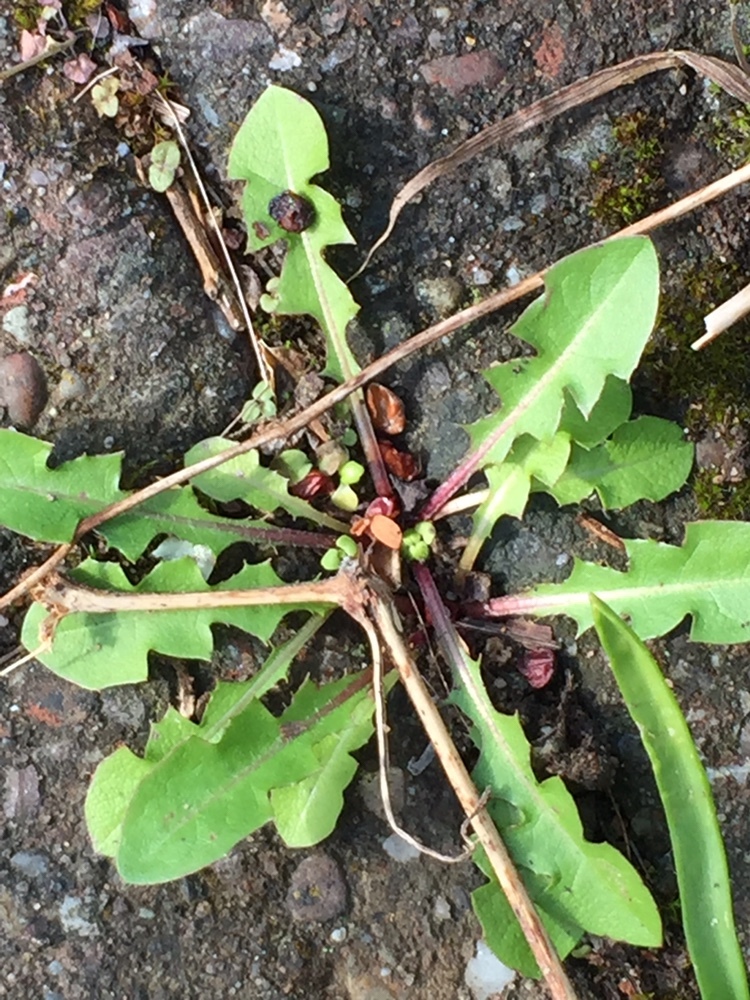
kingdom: Plantae
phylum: Tracheophyta
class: Magnoliopsida
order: Asterales
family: Asteraceae
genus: Taraxacum
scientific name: Taraxacum officinale
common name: Common dandelion
